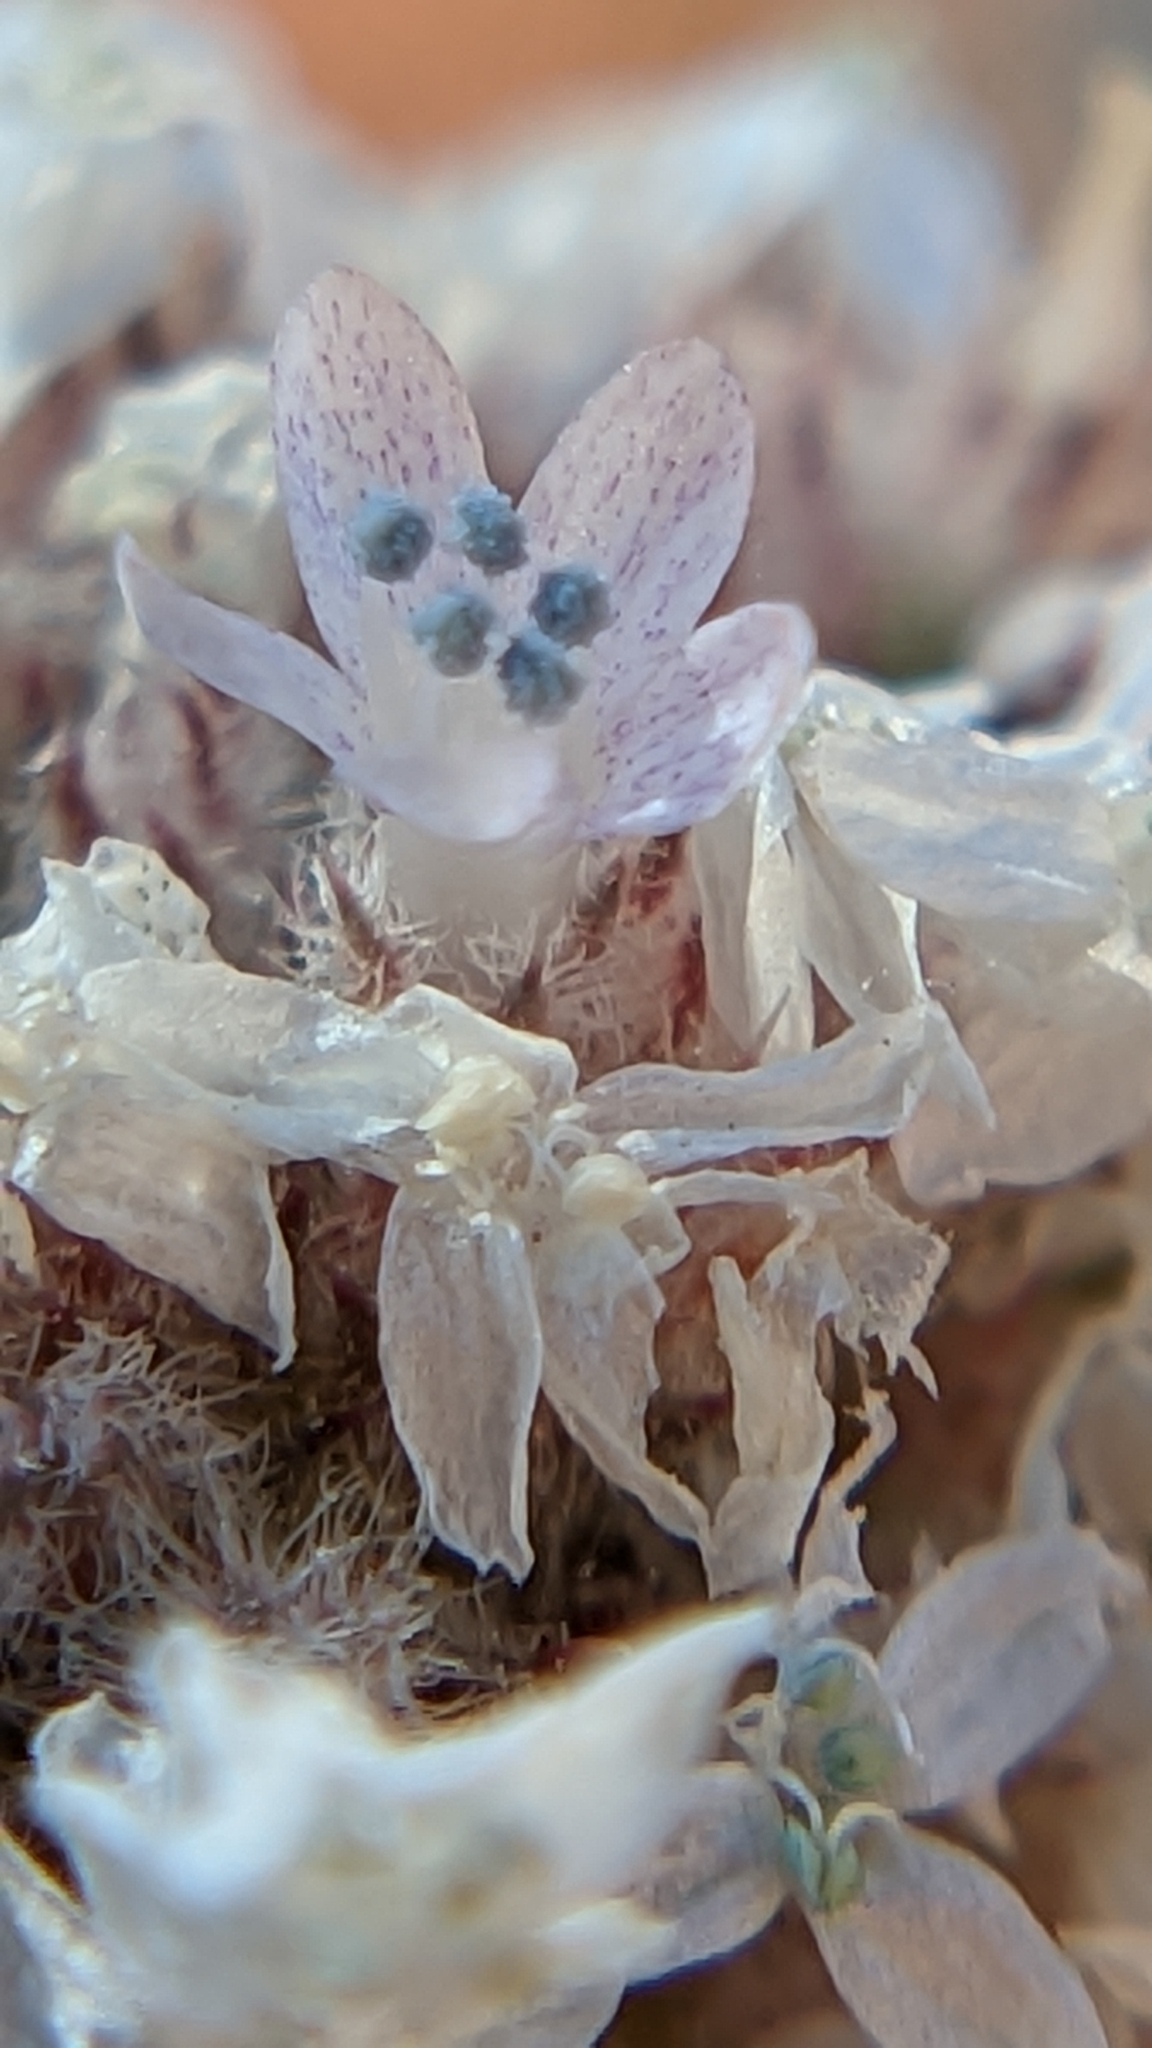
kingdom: Plantae
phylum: Tracheophyta
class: Magnoliopsida
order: Ericales
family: Polemoniaceae
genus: Ipomopsis
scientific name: Ipomopsis congesta
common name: Ball-head gilia
